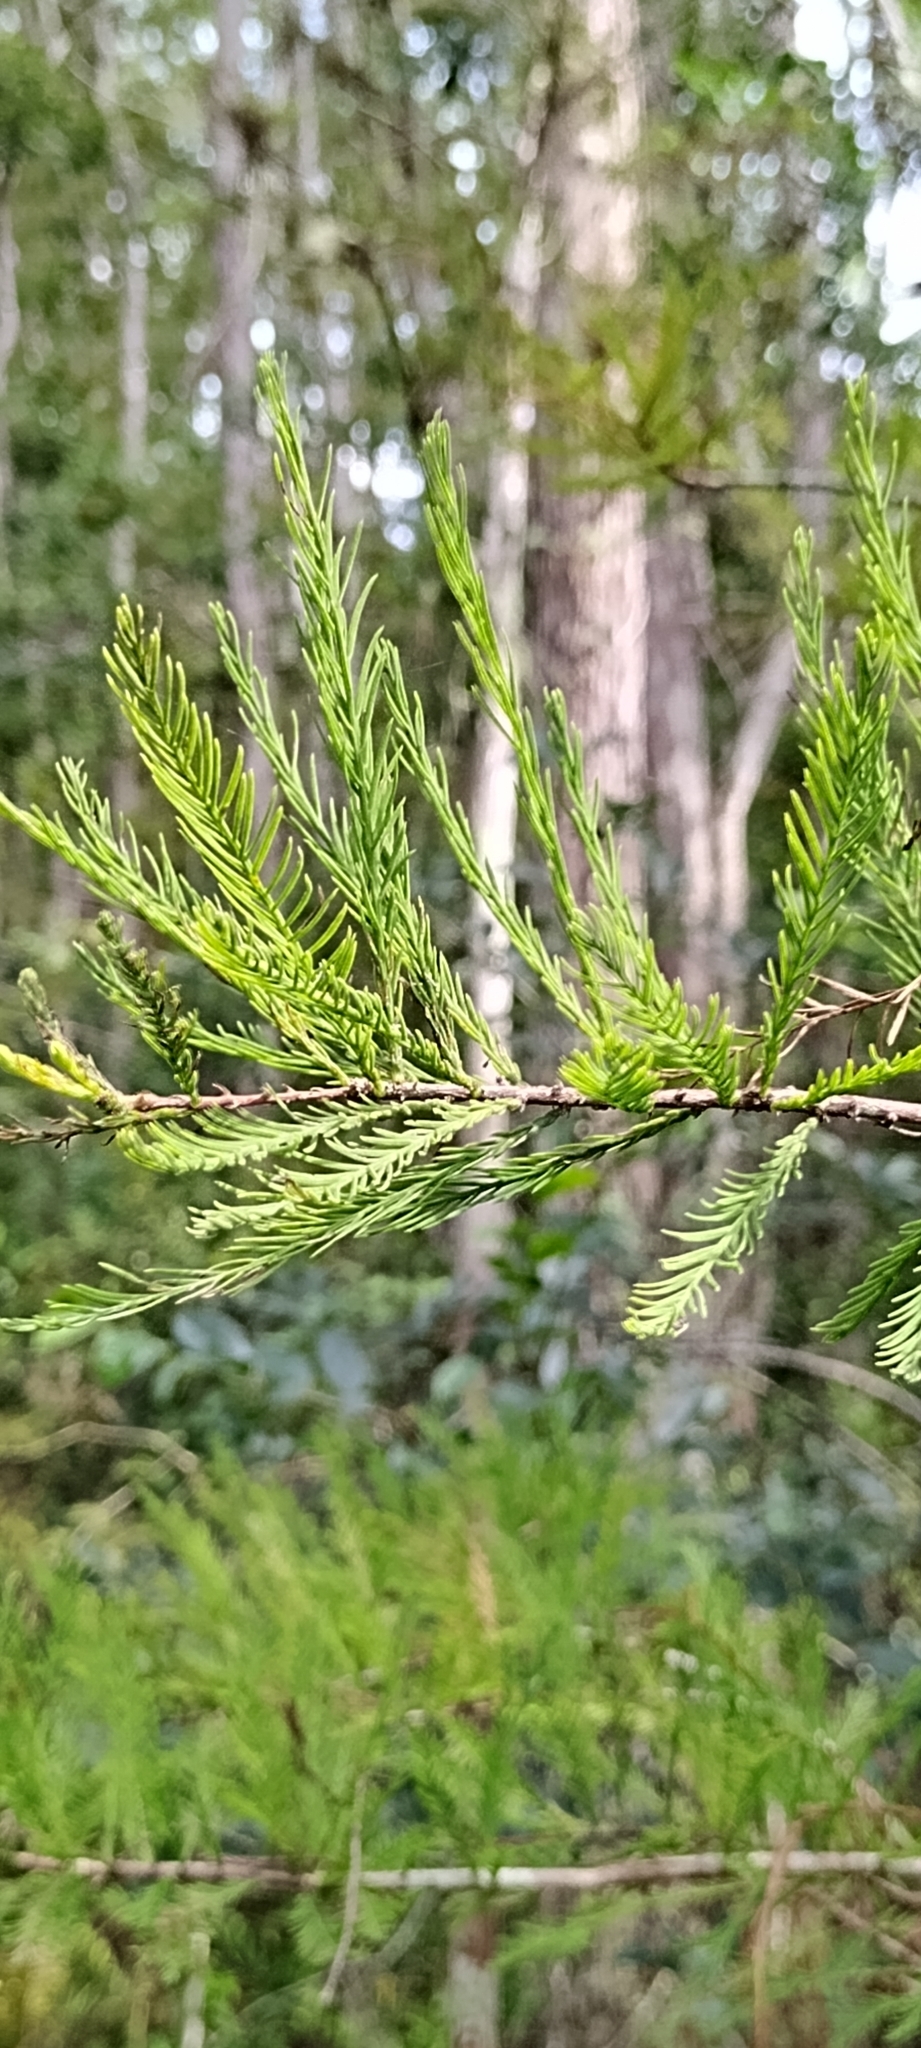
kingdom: Plantae
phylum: Tracheophyta
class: Pinopsida
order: Pinales
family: Cupressaceae
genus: Taxodium
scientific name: Taxodium distichum
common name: Bald cypress
